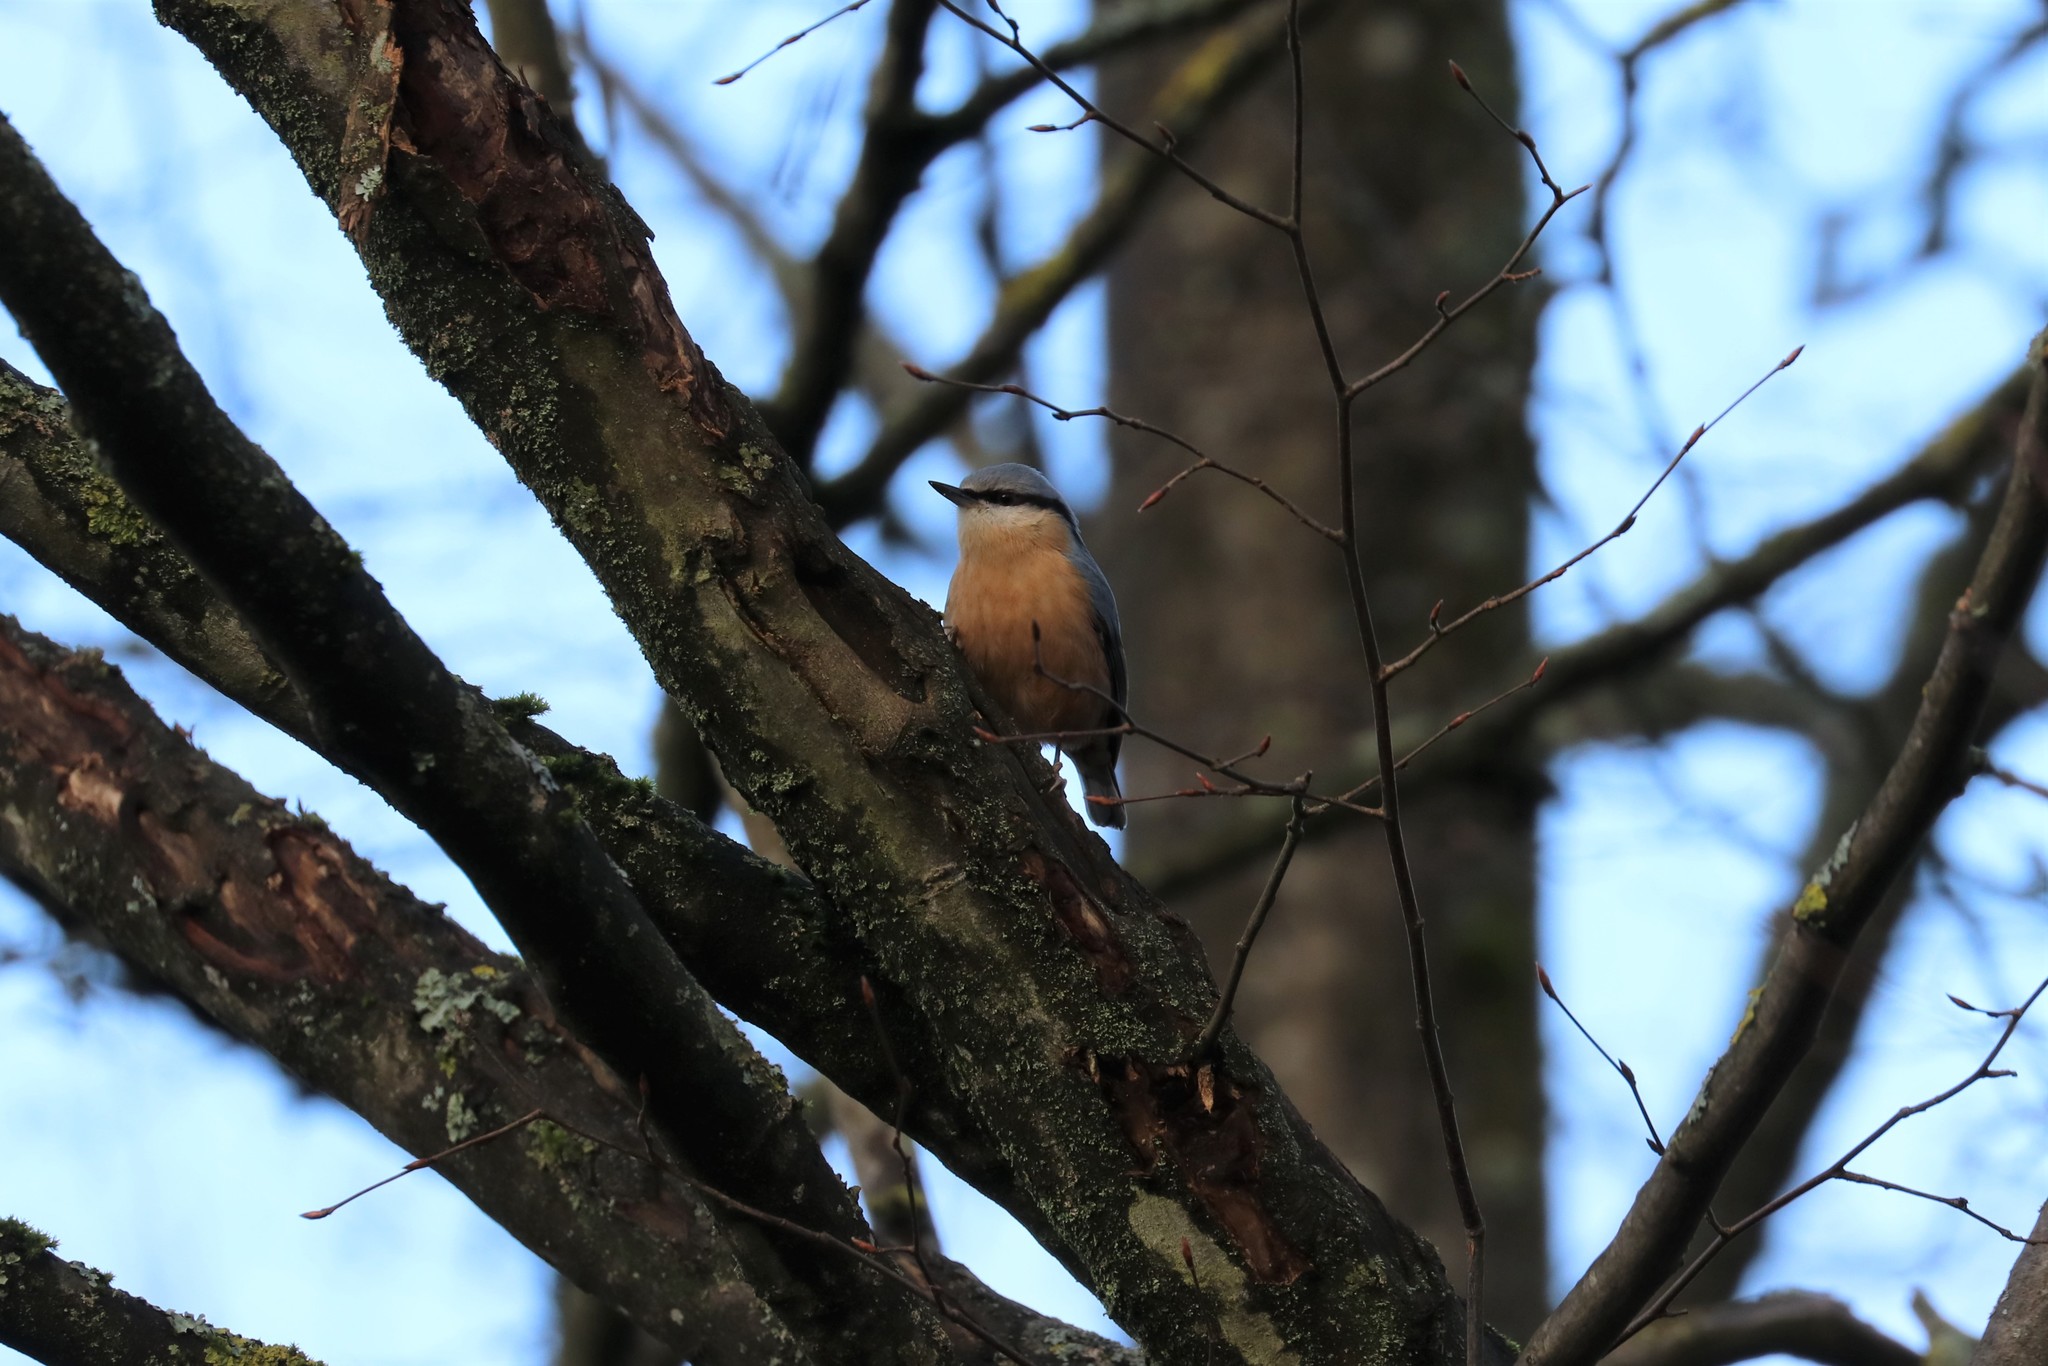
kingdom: Animalia
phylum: Chordata
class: Aves
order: Passeriformes
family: Sittidae
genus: Sitta
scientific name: Sitta europaea
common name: Eurasian nuthatch
